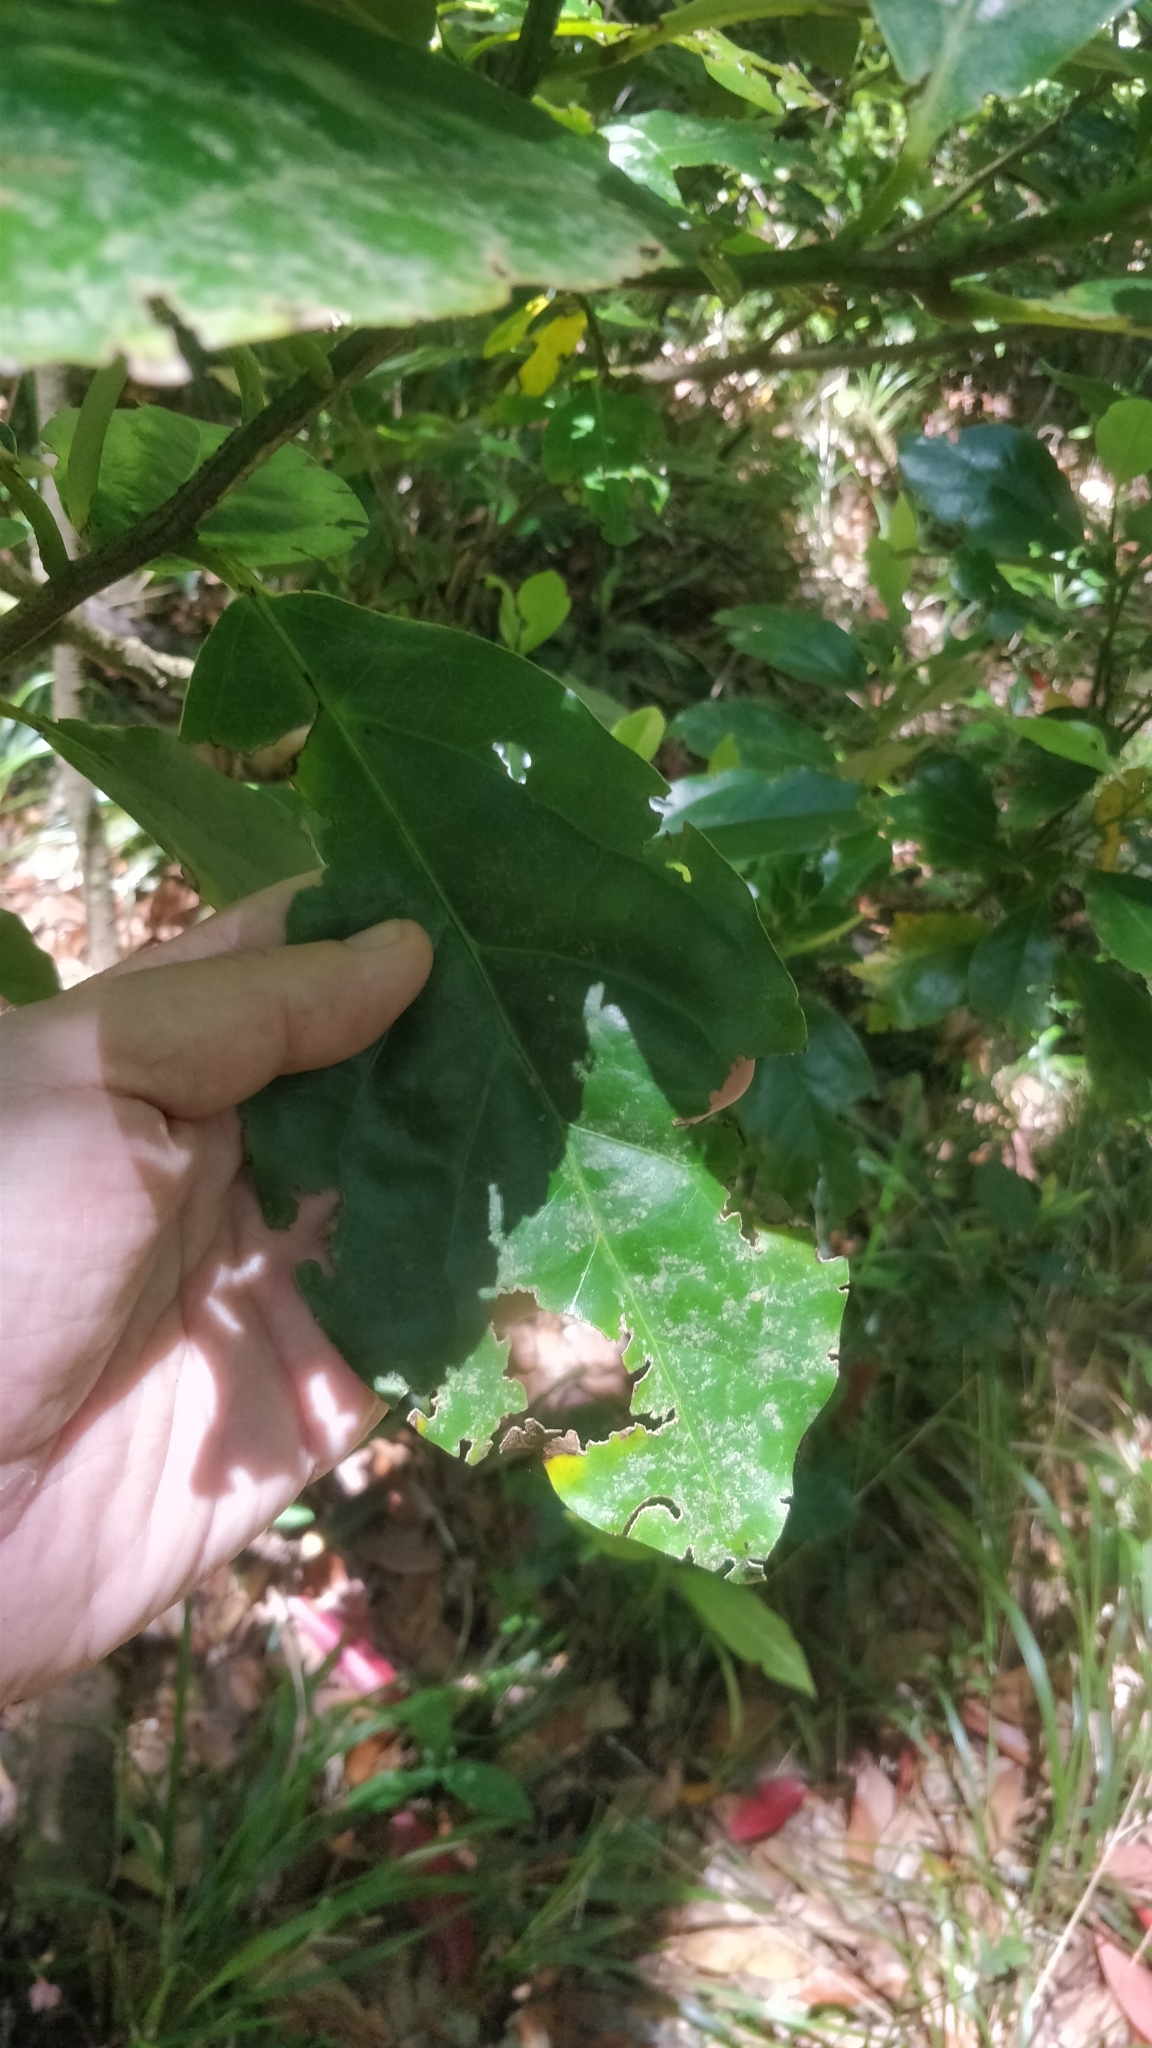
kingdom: Plantae
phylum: Tracheophyta
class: Magnoliopsida
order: Laurales
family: Lauraceae
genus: Mespilodaphne
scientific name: Mespilodaphne foetens
